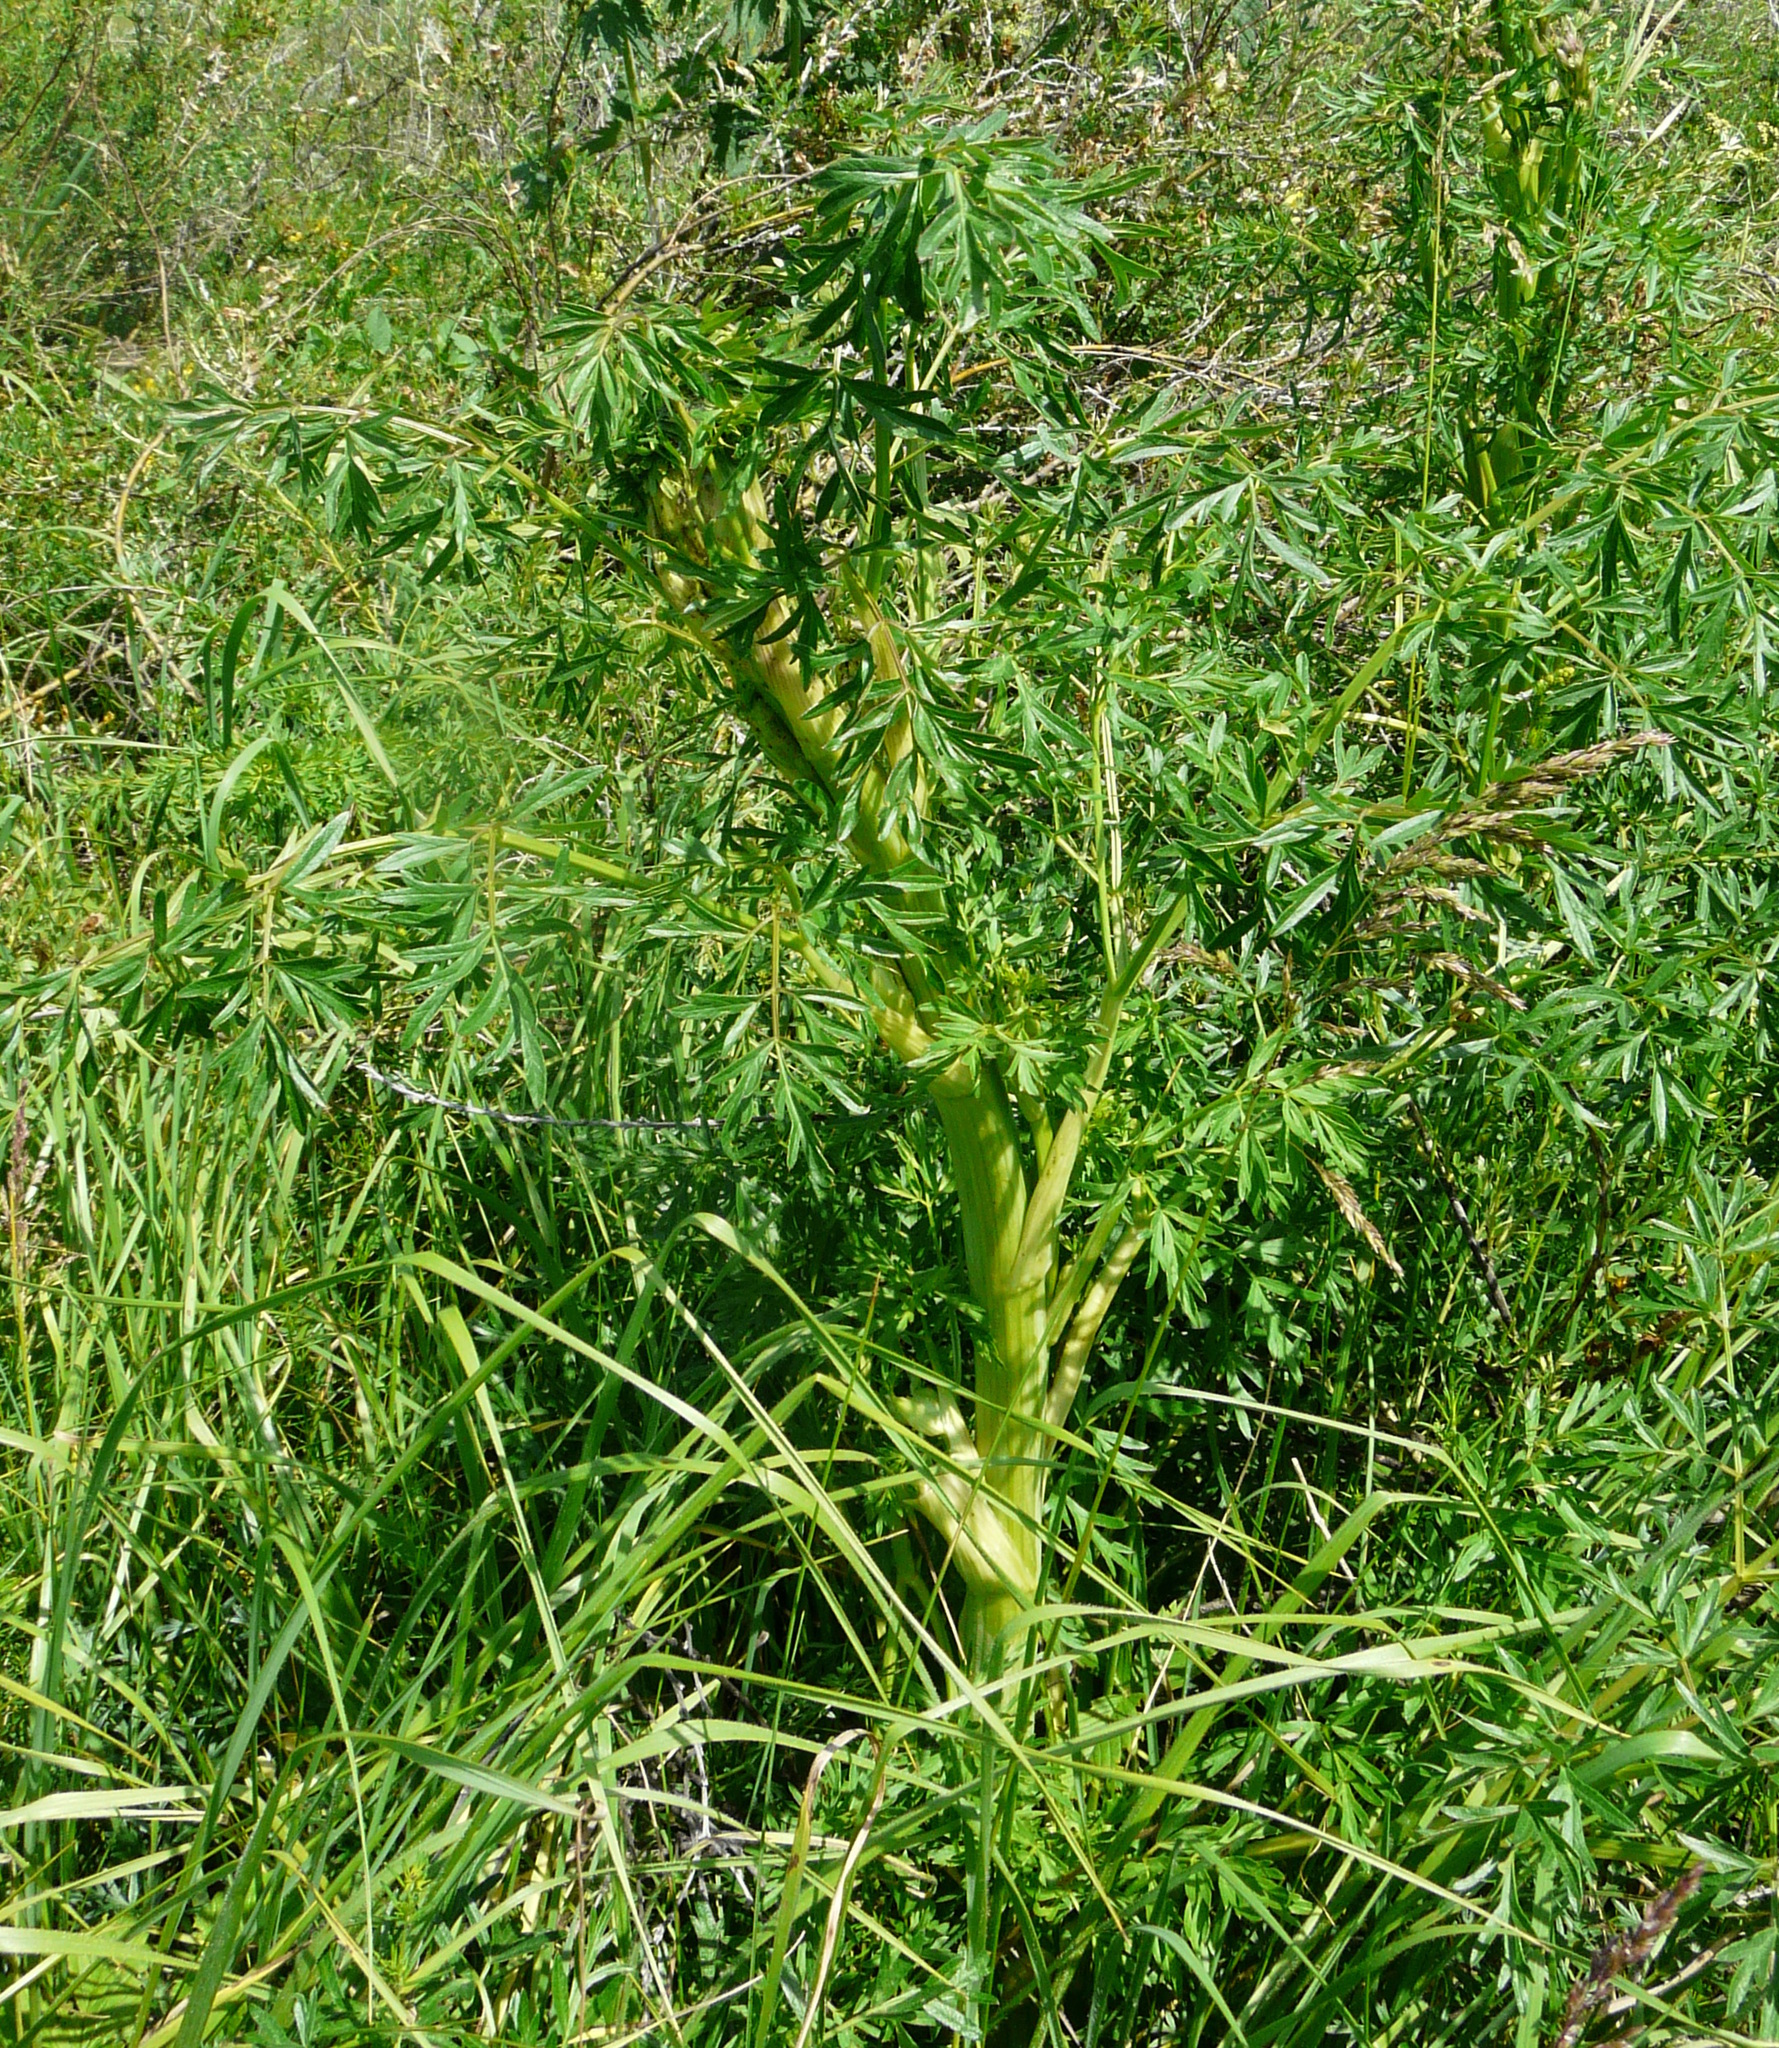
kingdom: Plantae
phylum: Tracheophyta
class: Magnoliopsida
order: Apiales
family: Apiaceae
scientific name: Apiaceae
